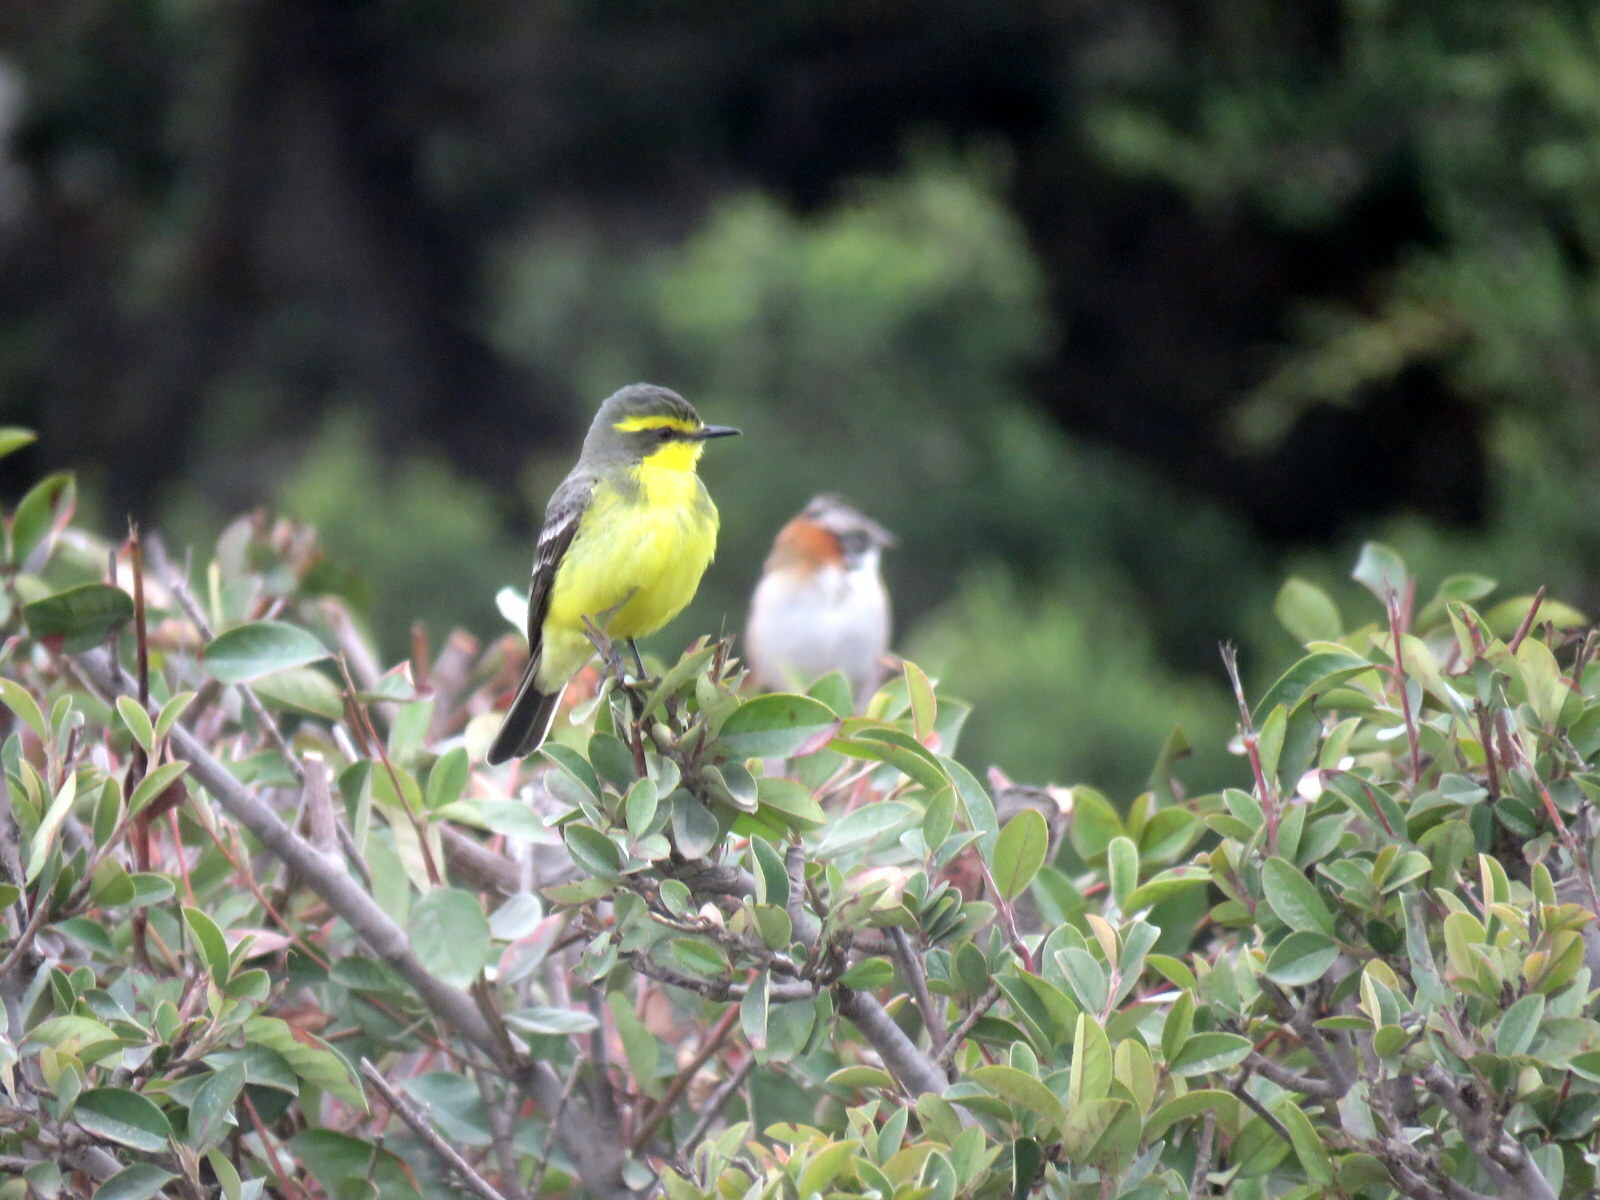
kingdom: Animalia
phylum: Chordata
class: Aves
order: Passeriformes
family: Tyrannidae
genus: Satrapa
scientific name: Satrapa icterophrys
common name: Yellow-browed tyrant
